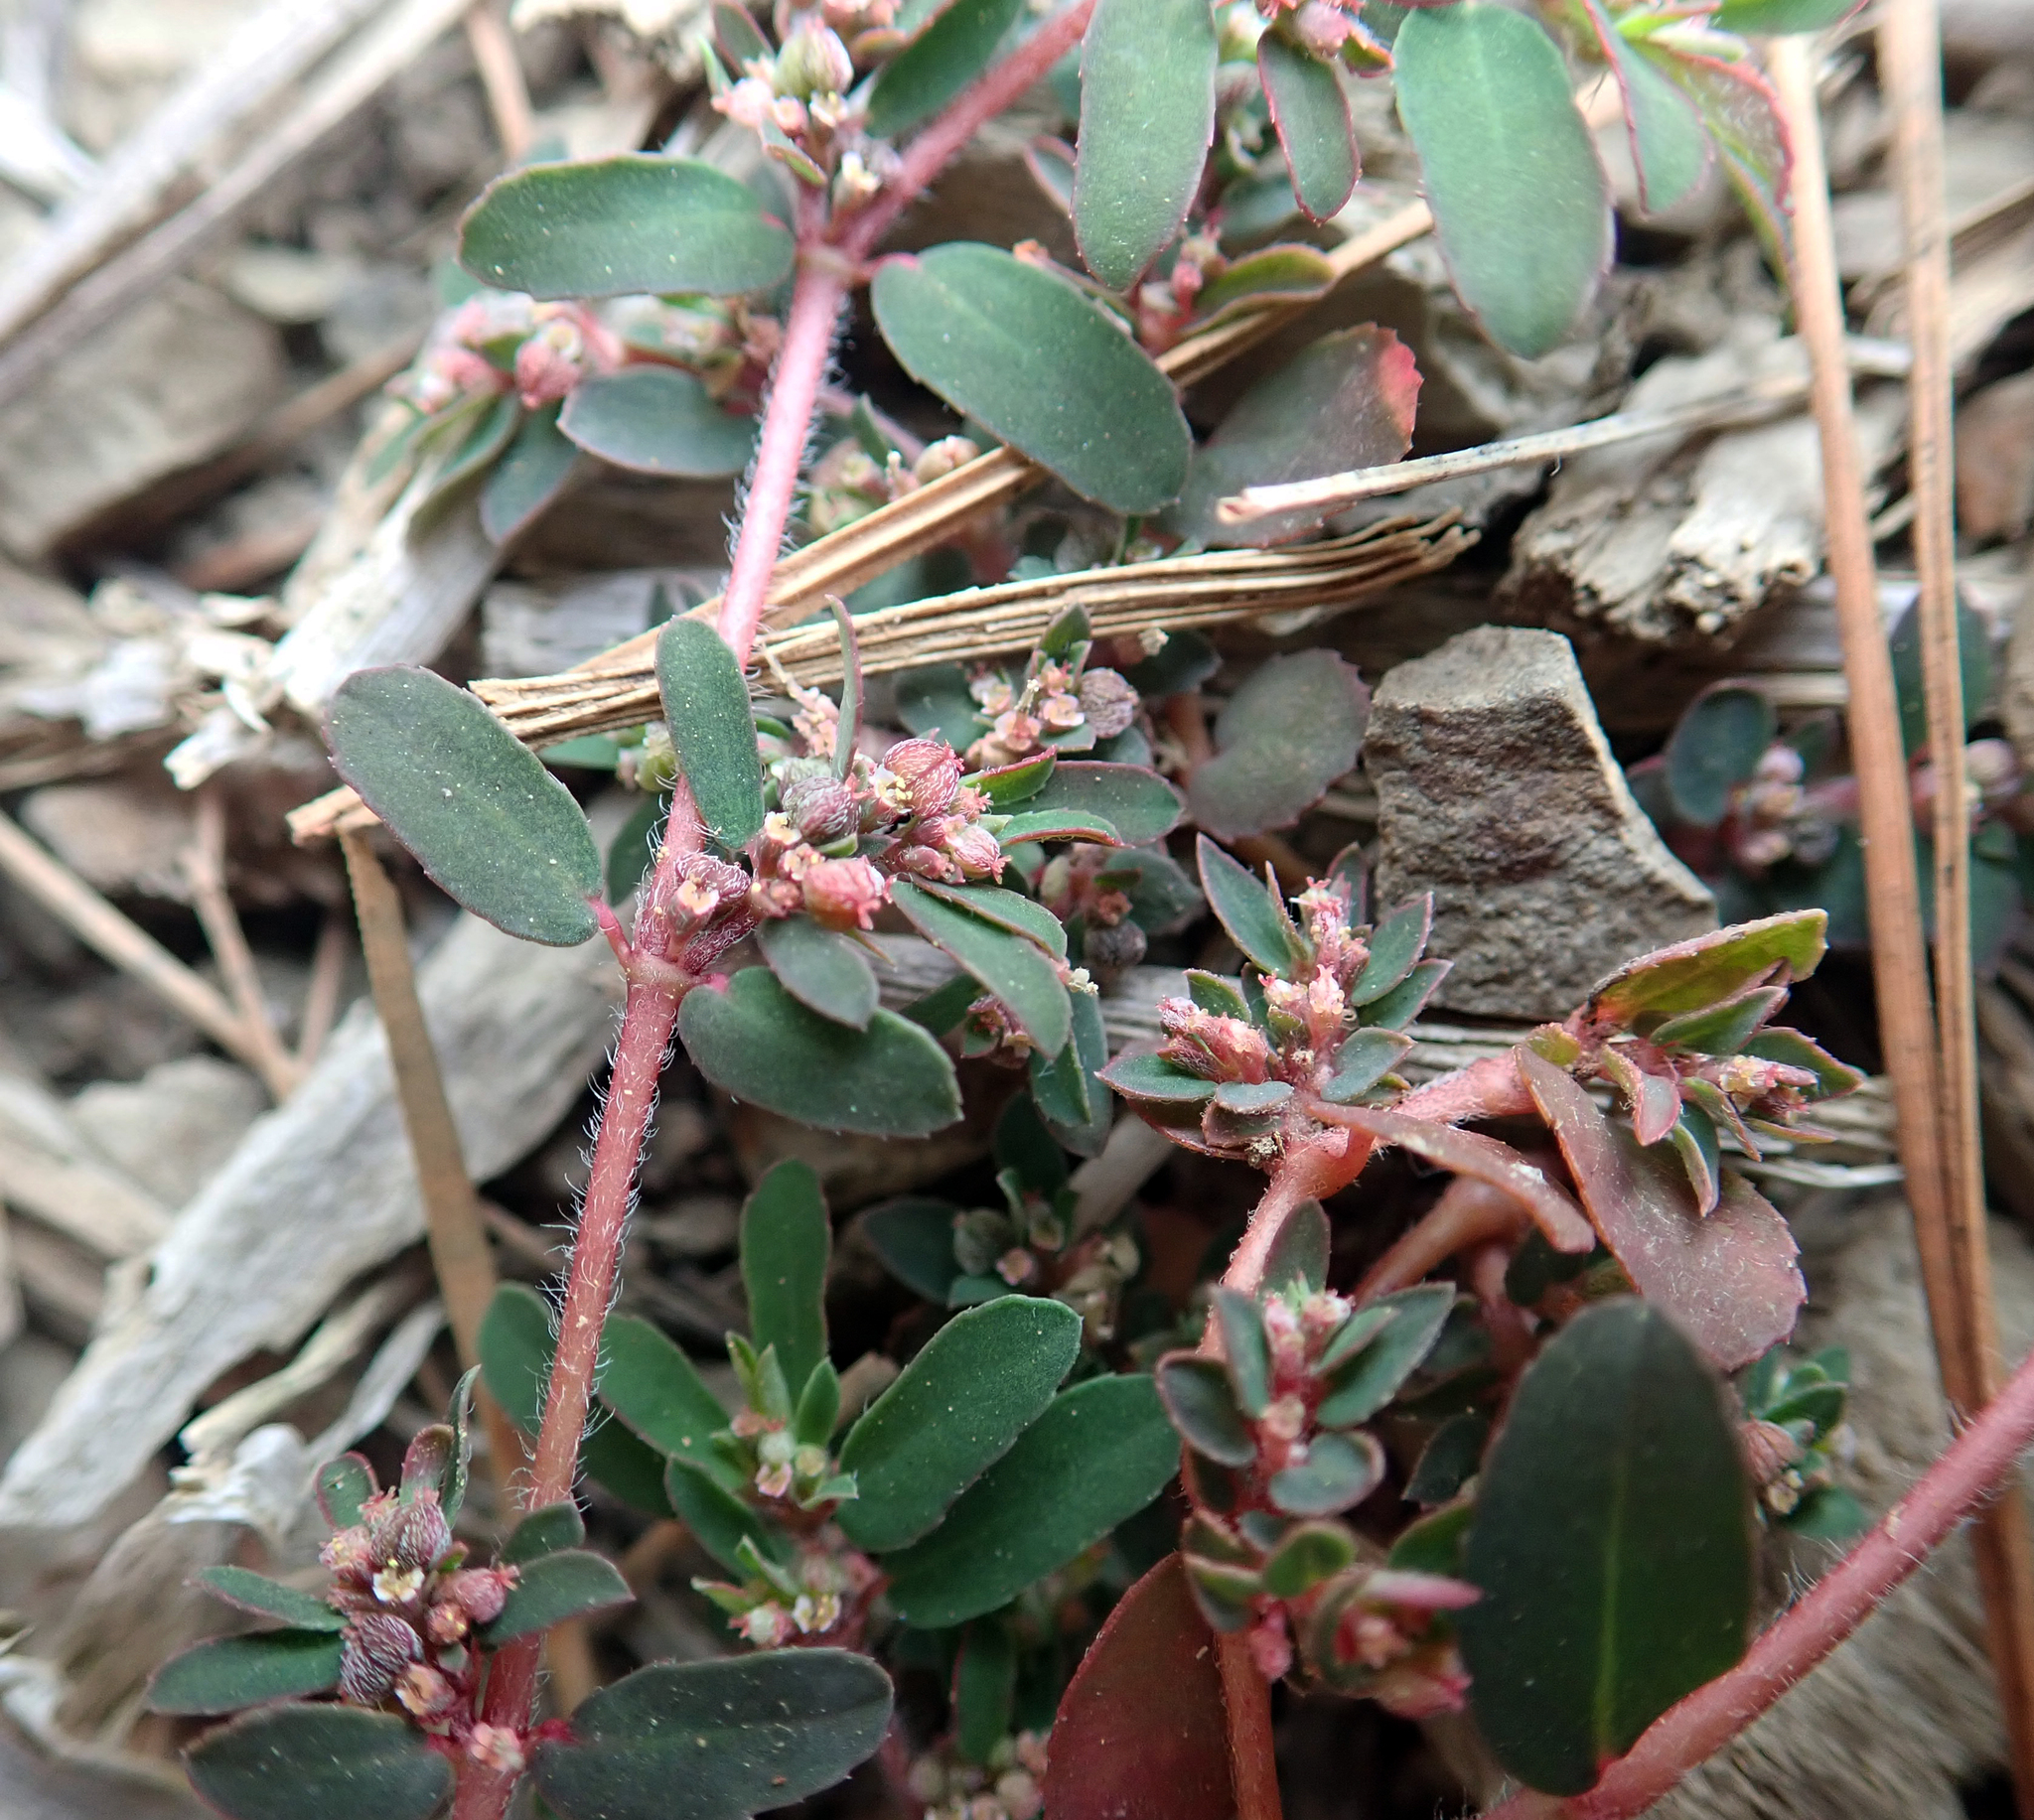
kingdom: Plantae
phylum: Tracheophyta
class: Magnoliopsida
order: Malpighiales
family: Euphorbiaceae
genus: Euphorbia
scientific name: Euphorbia maculata
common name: Spotted spurge
